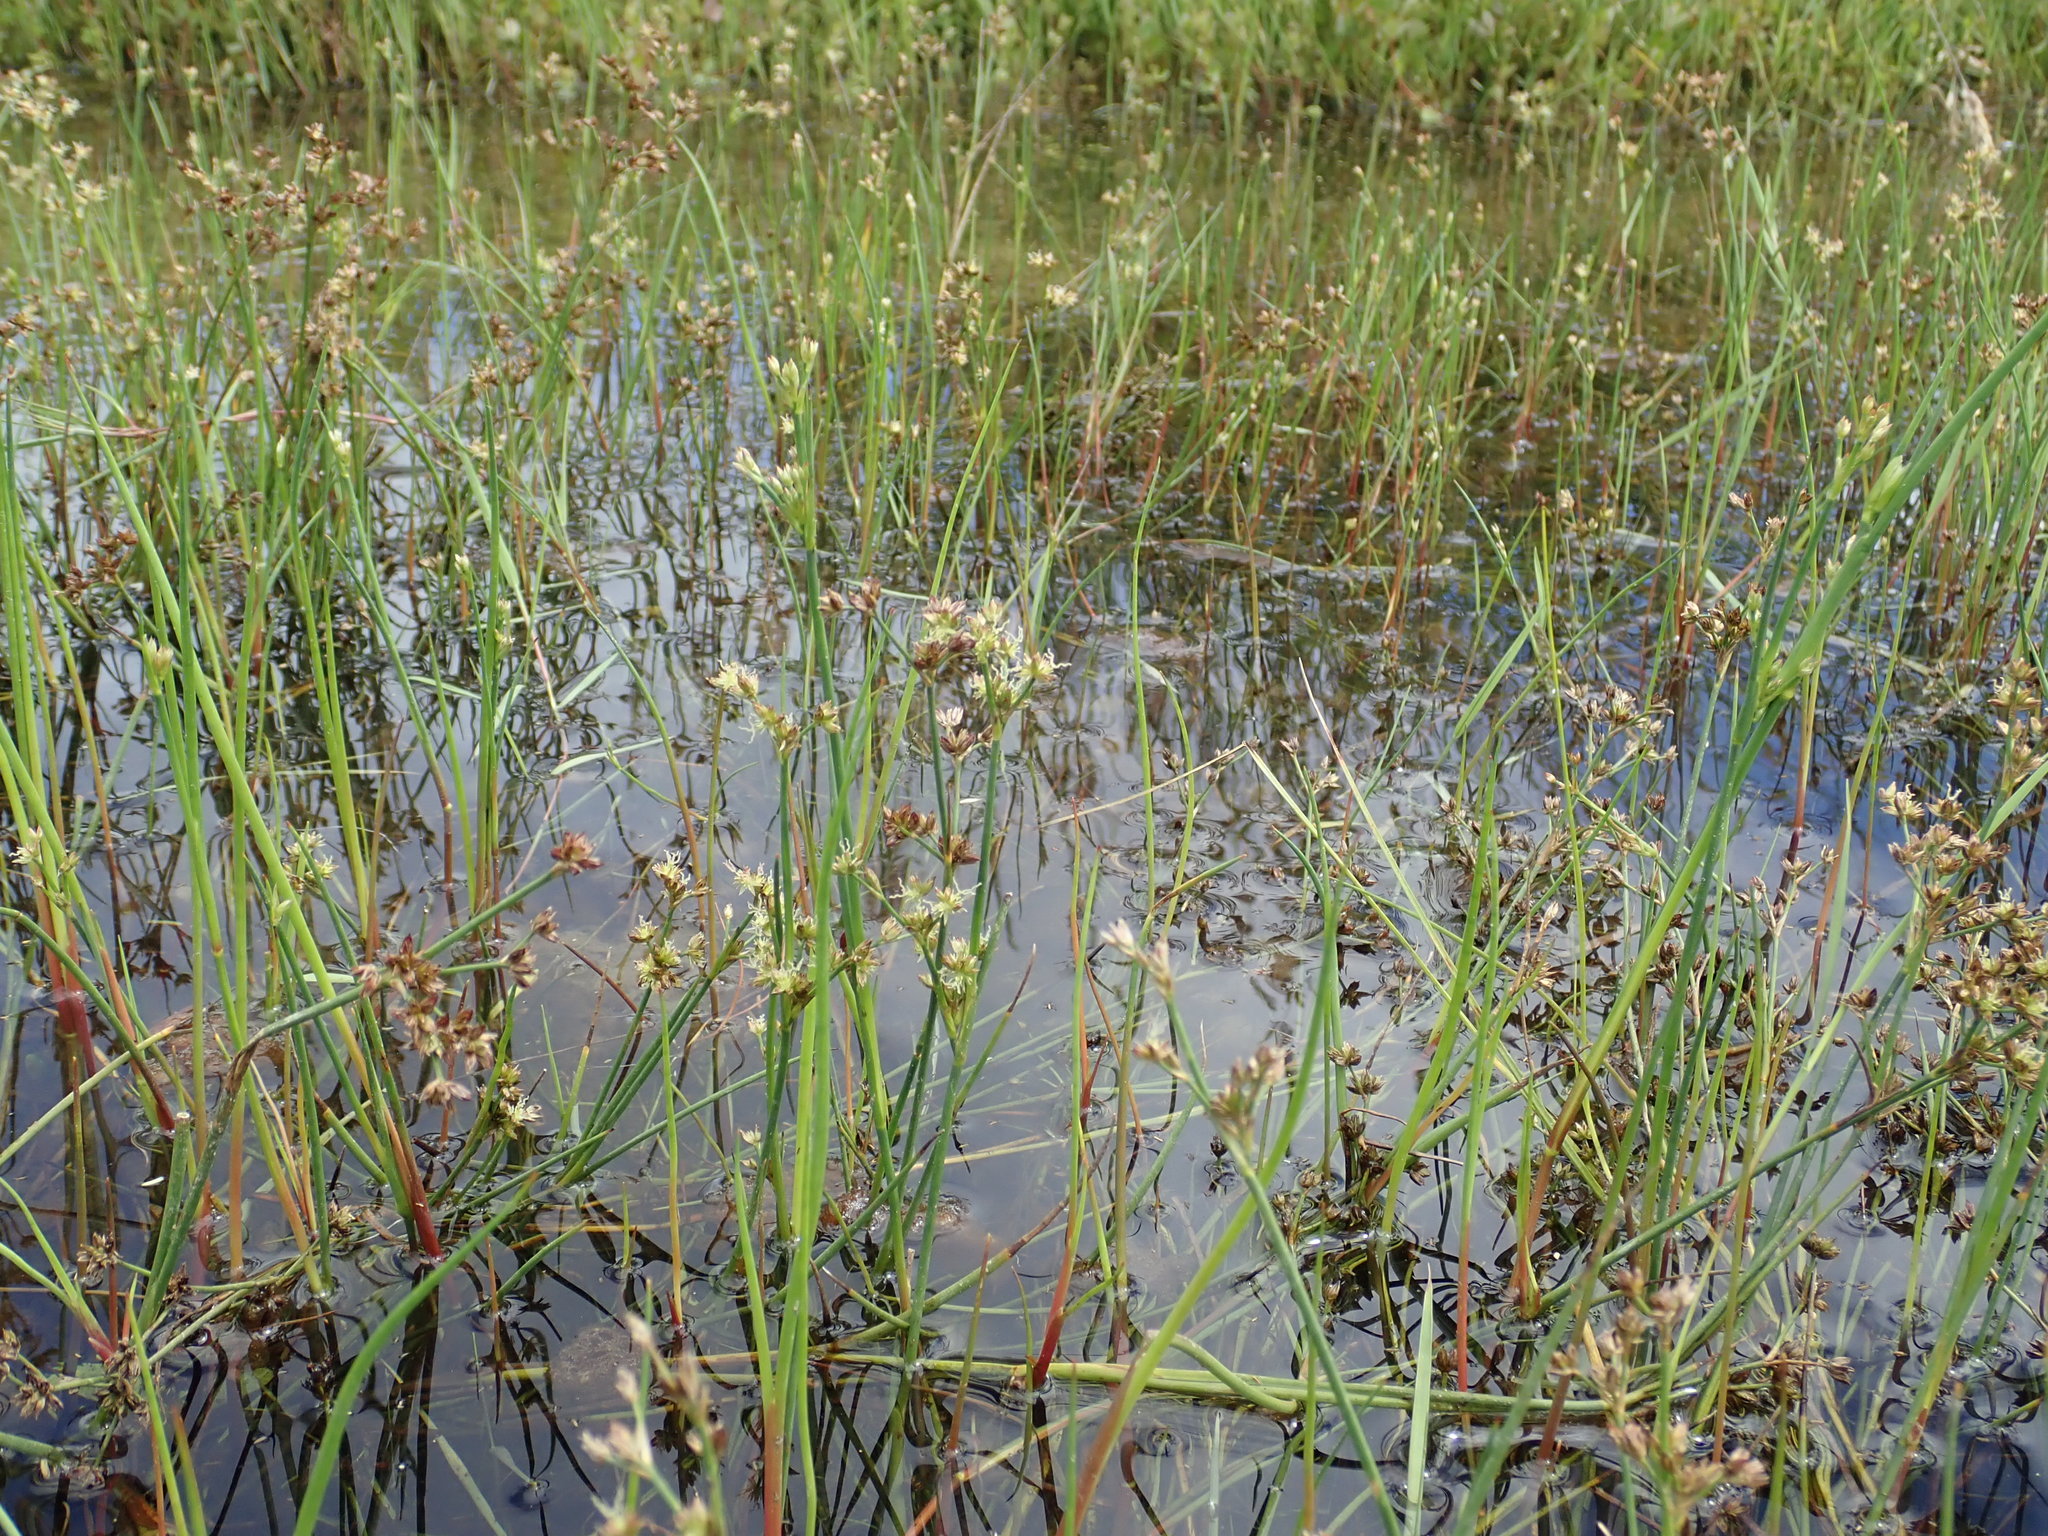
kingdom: Plantae
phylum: Tracheophyta
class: Liliopsida
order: Poales
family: Juncaceae
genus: Juncus
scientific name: Juncus articulatus
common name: Jointed rush
